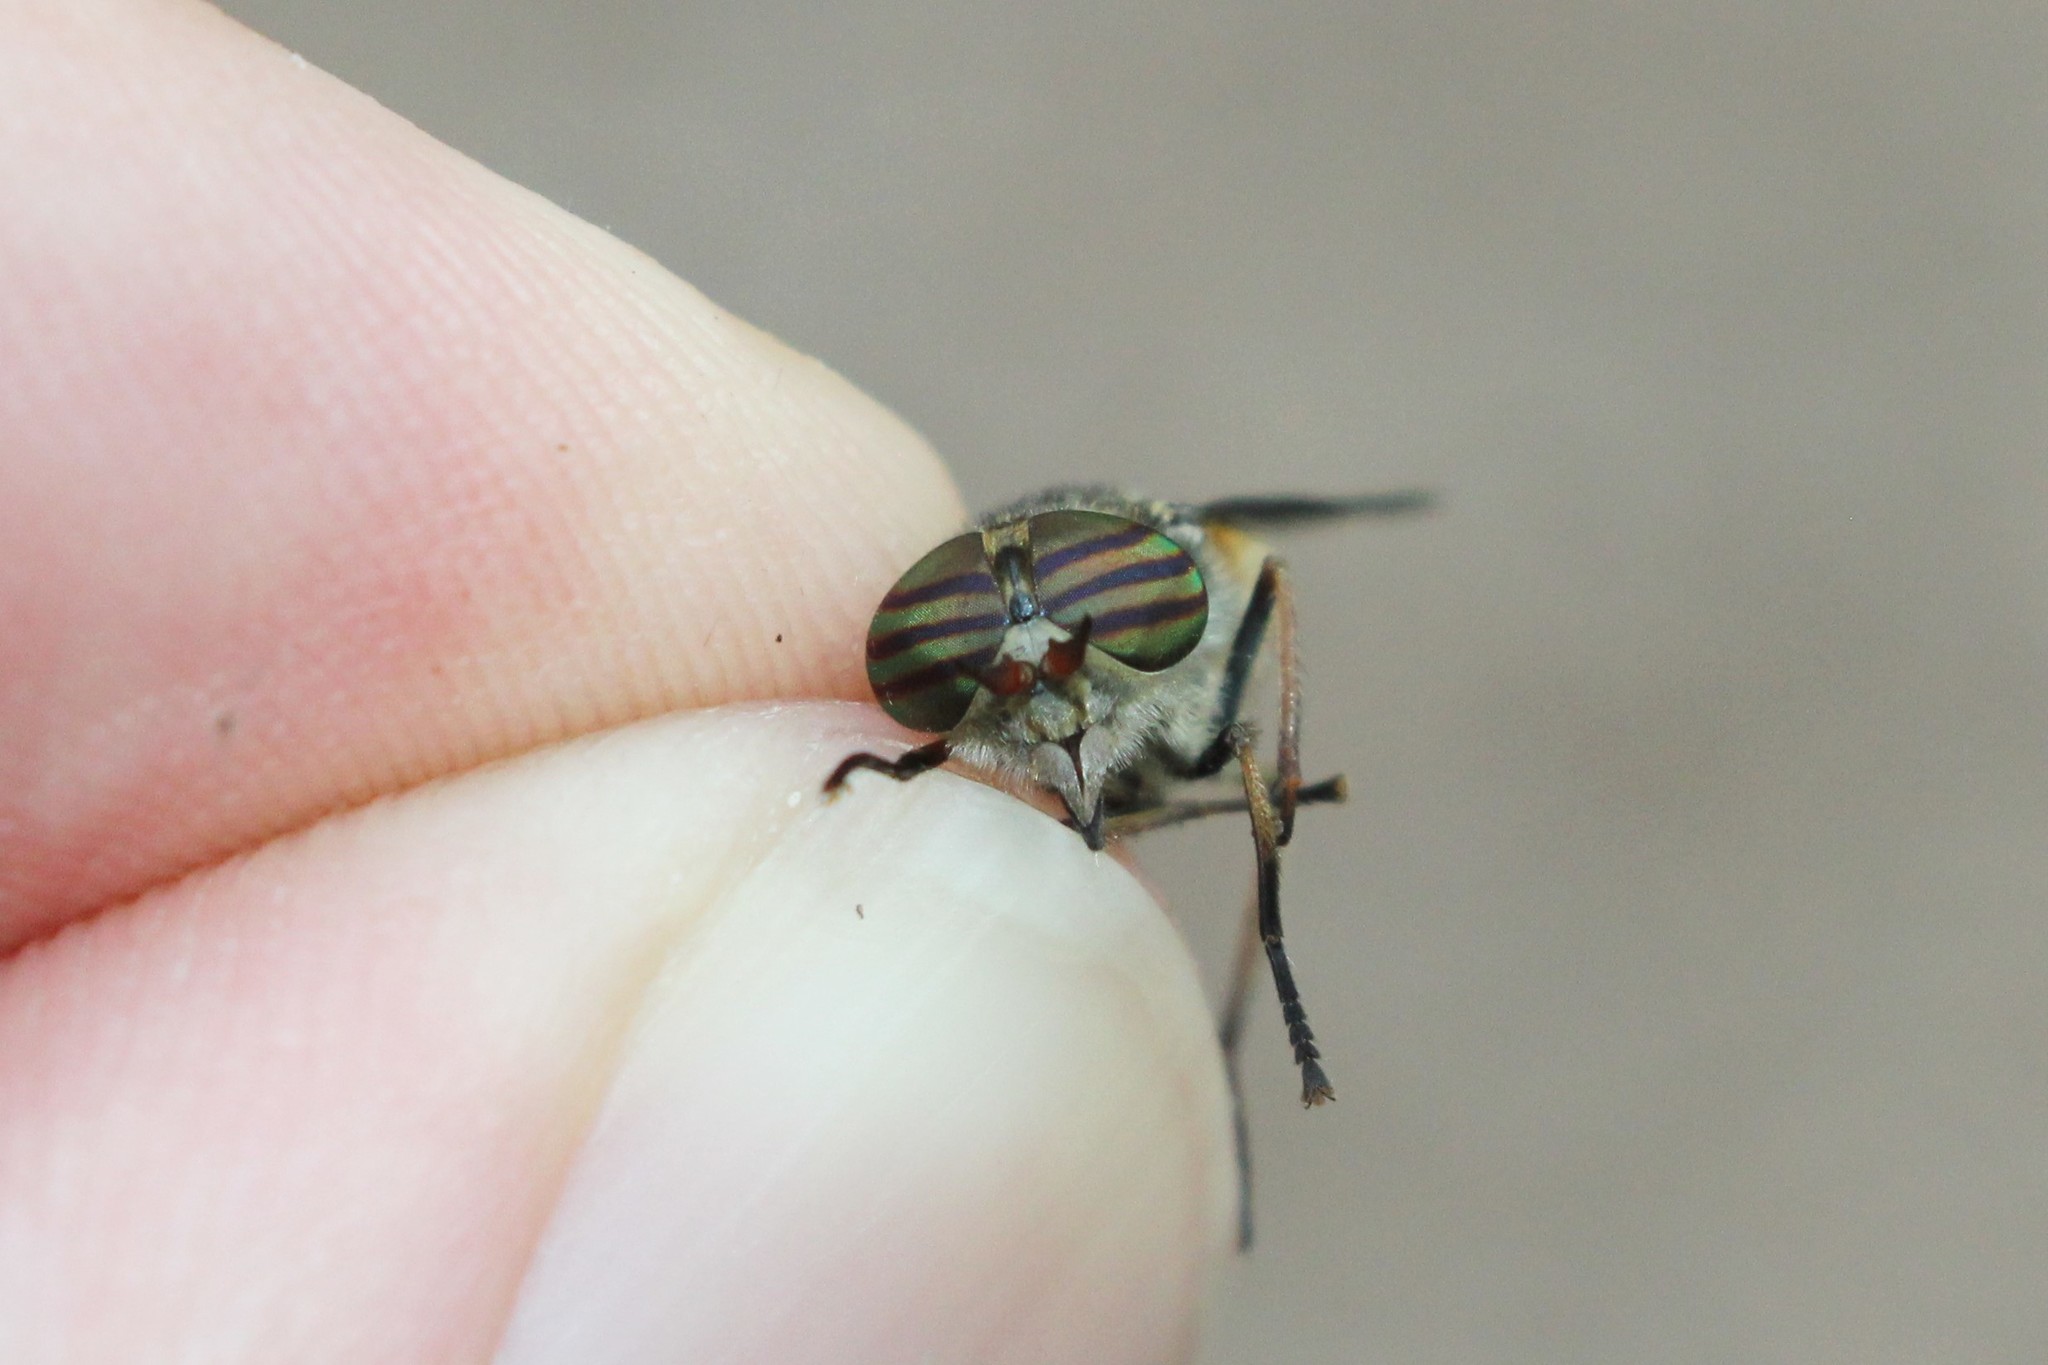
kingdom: Animalia
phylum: Arthropoda
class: Insecta
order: Diptera
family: Tabanidae
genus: Hybomitra
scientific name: Hybomitra epistates
